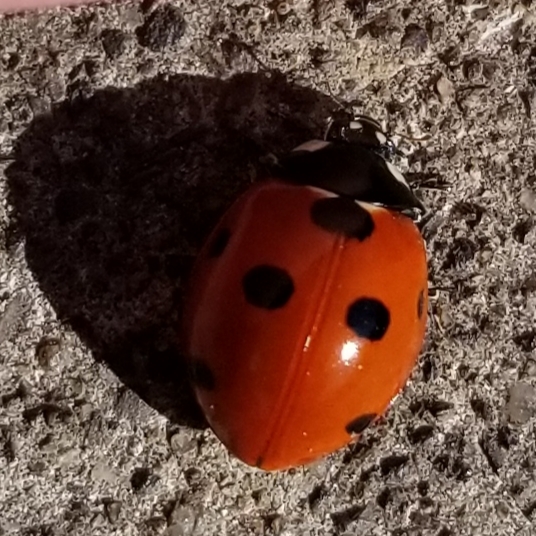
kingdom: Animalia
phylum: Arthropoda
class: Insecta
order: Coleoptera
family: Coccinellidae
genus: Coccinella
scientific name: Coccinella septempunctata
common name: Sevenspotted lady beetle
